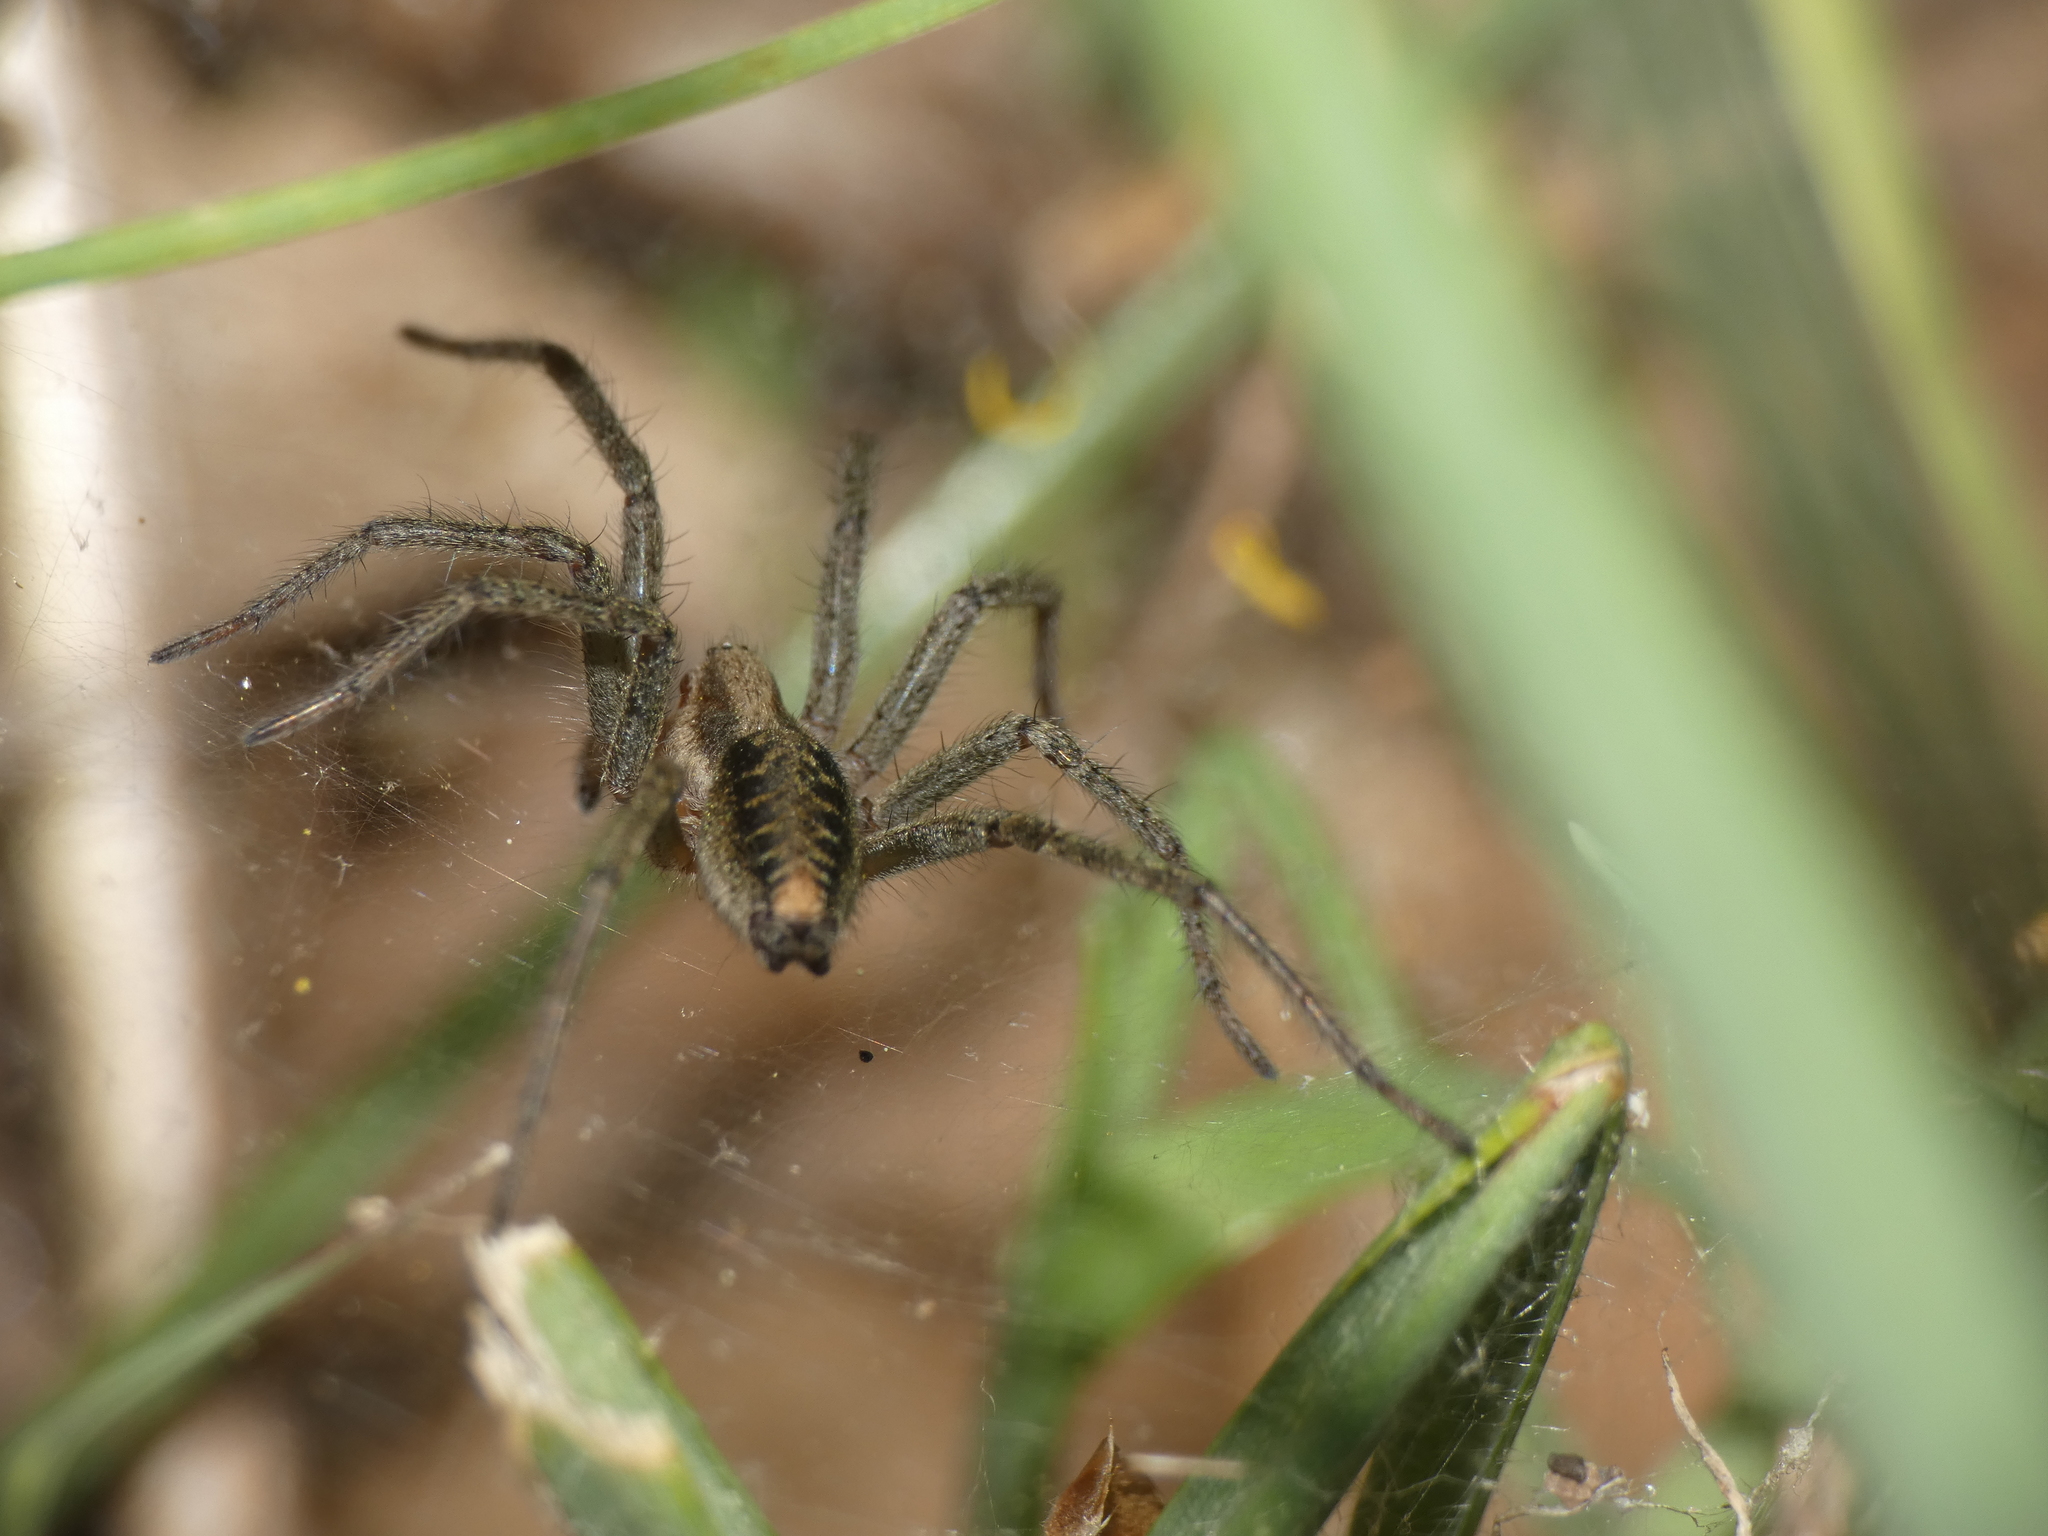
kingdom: Animalia
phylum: Arthropoda
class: Arachnida
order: Araneae
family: Agelenidae
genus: Agelena
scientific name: Agelena labyrinthica
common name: Labyrinth spider
